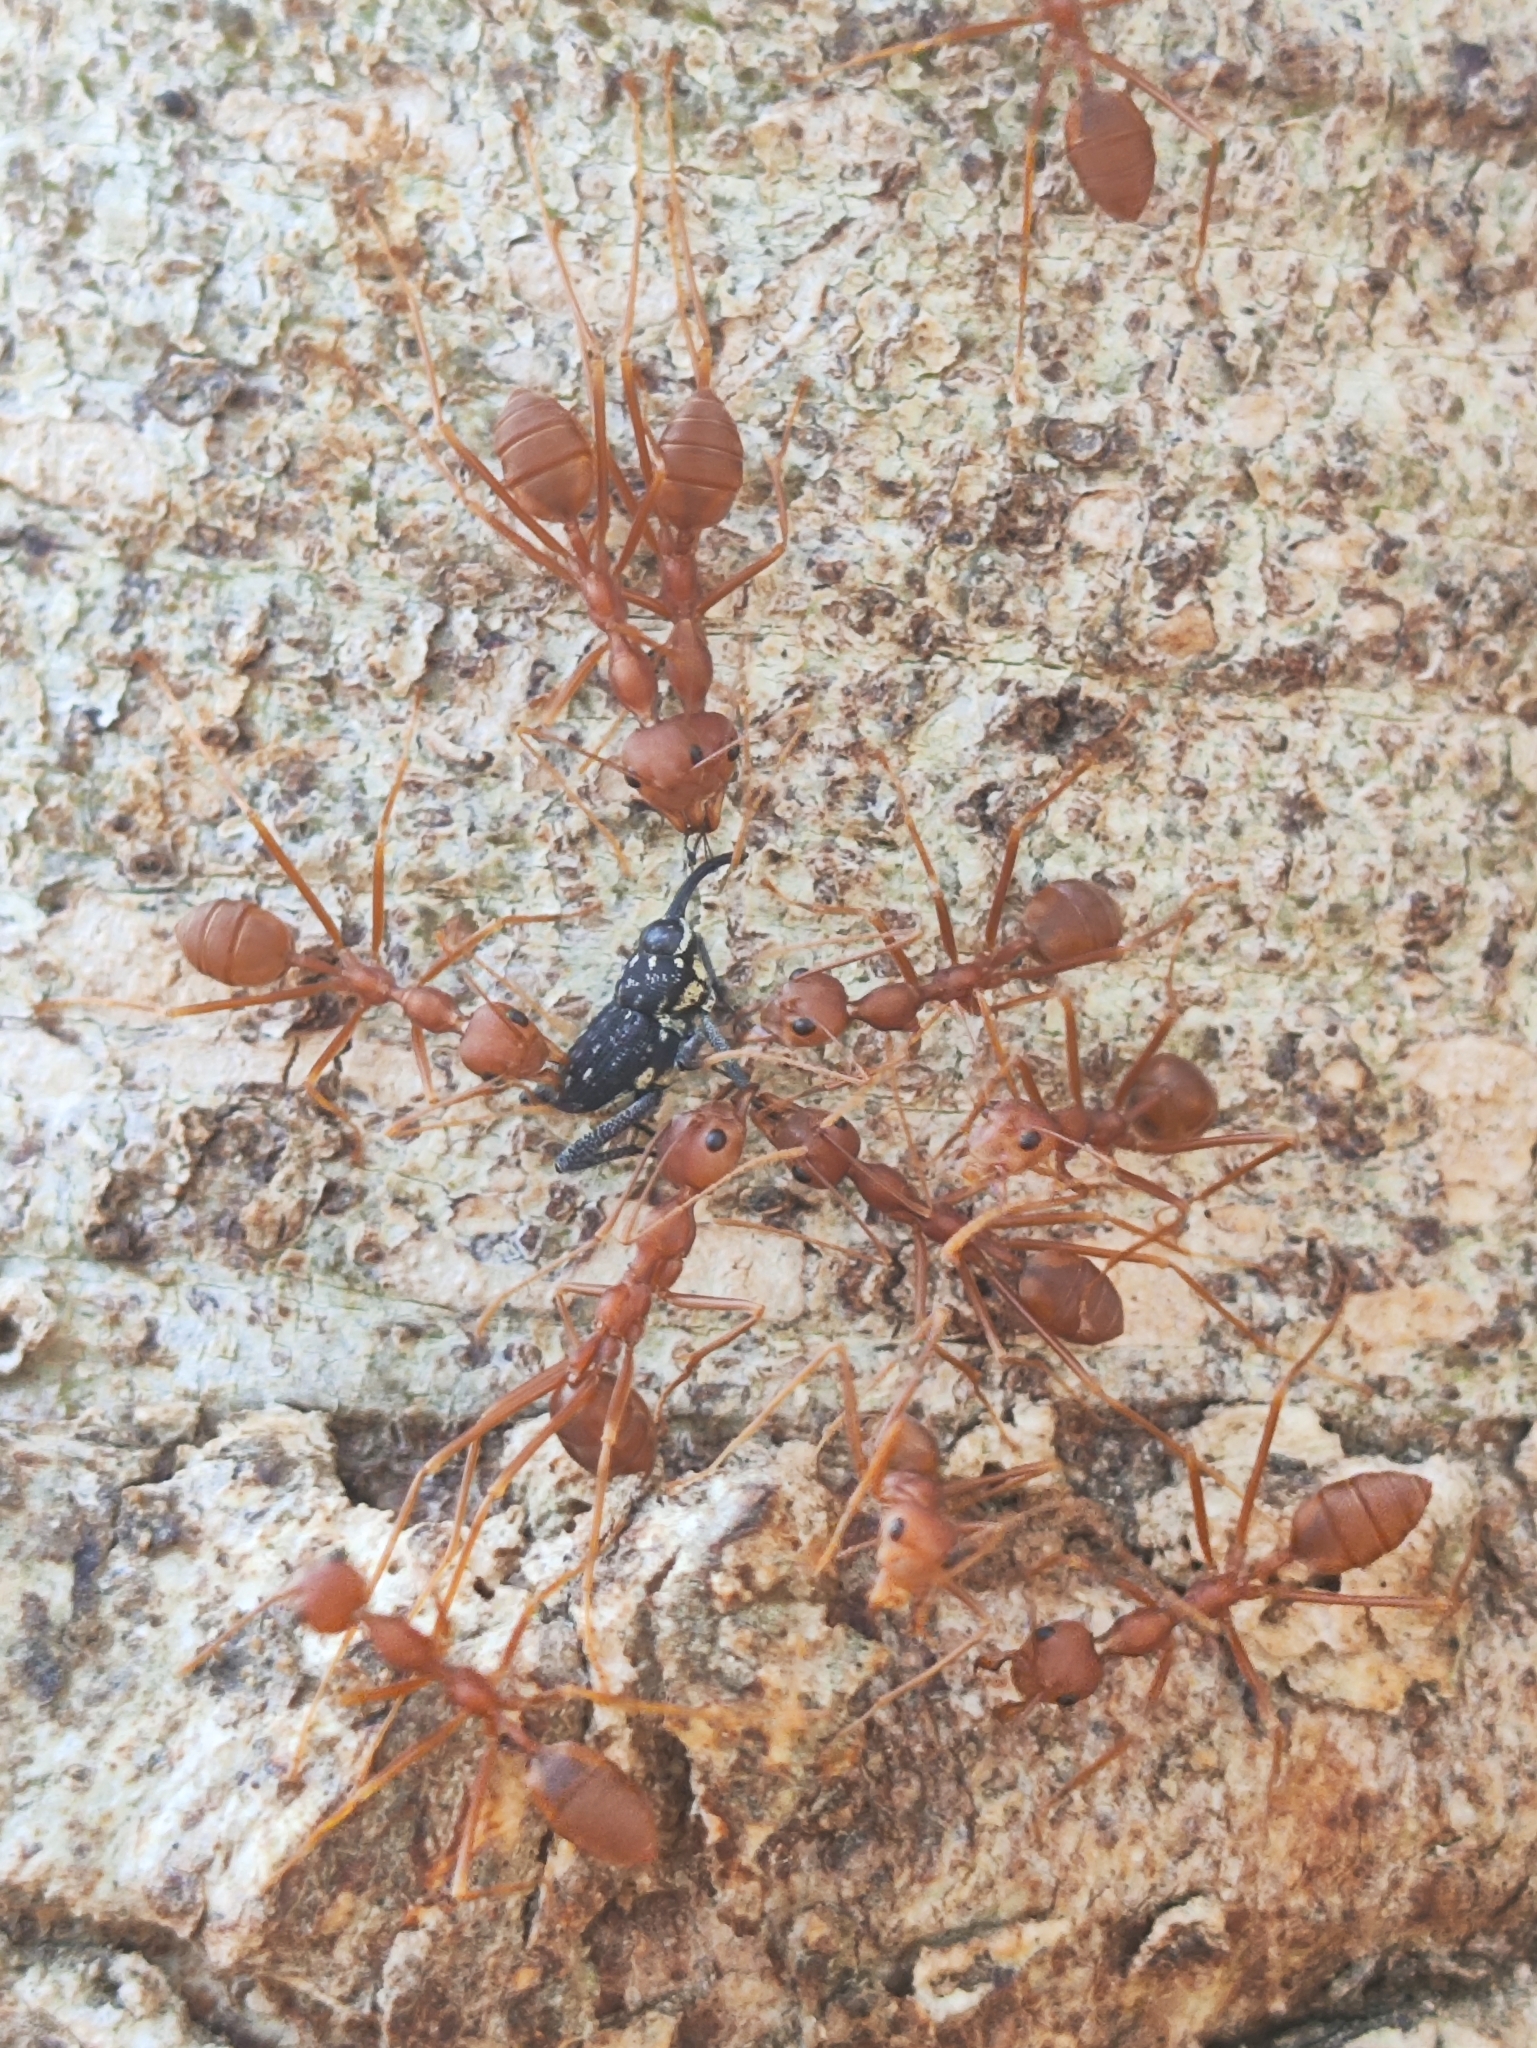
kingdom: Animalia
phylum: Arthropoda
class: Insecta
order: Hymenoptera
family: Formicidae
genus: Oecophylla
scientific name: Oecophylla smaragdina
